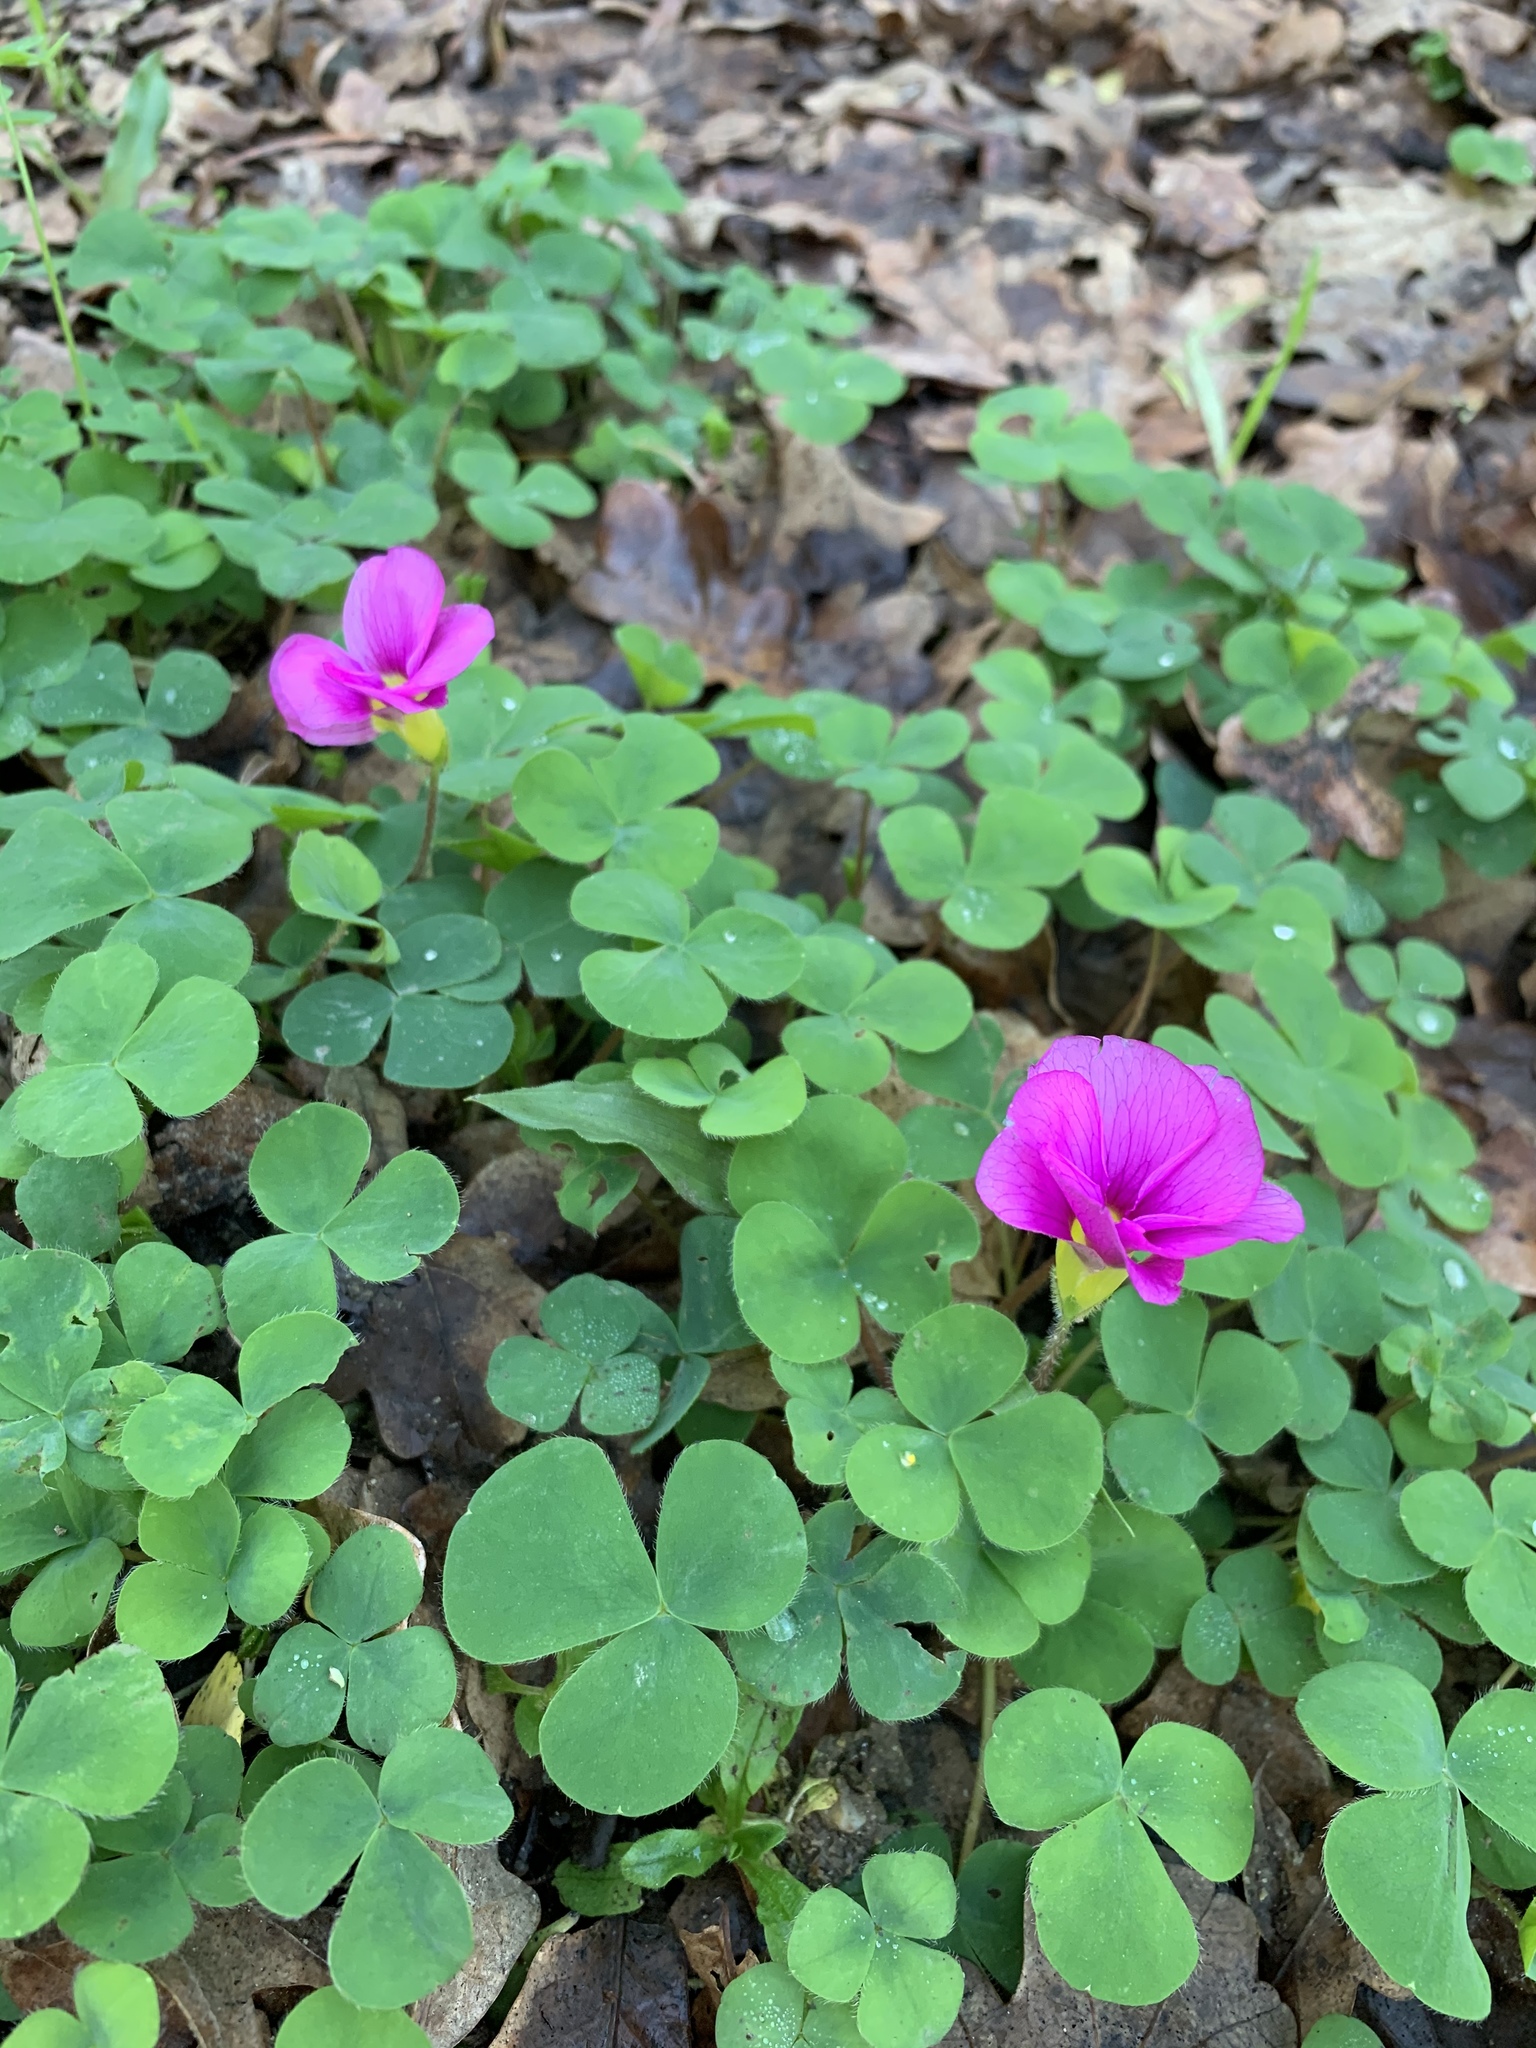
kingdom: Plantae
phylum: Tracheophyta
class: Magnoliopsida
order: Oxalidales
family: Oxalidaceae
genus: Oxalis
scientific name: Oxalis purpurea
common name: Purple woodsorrel
